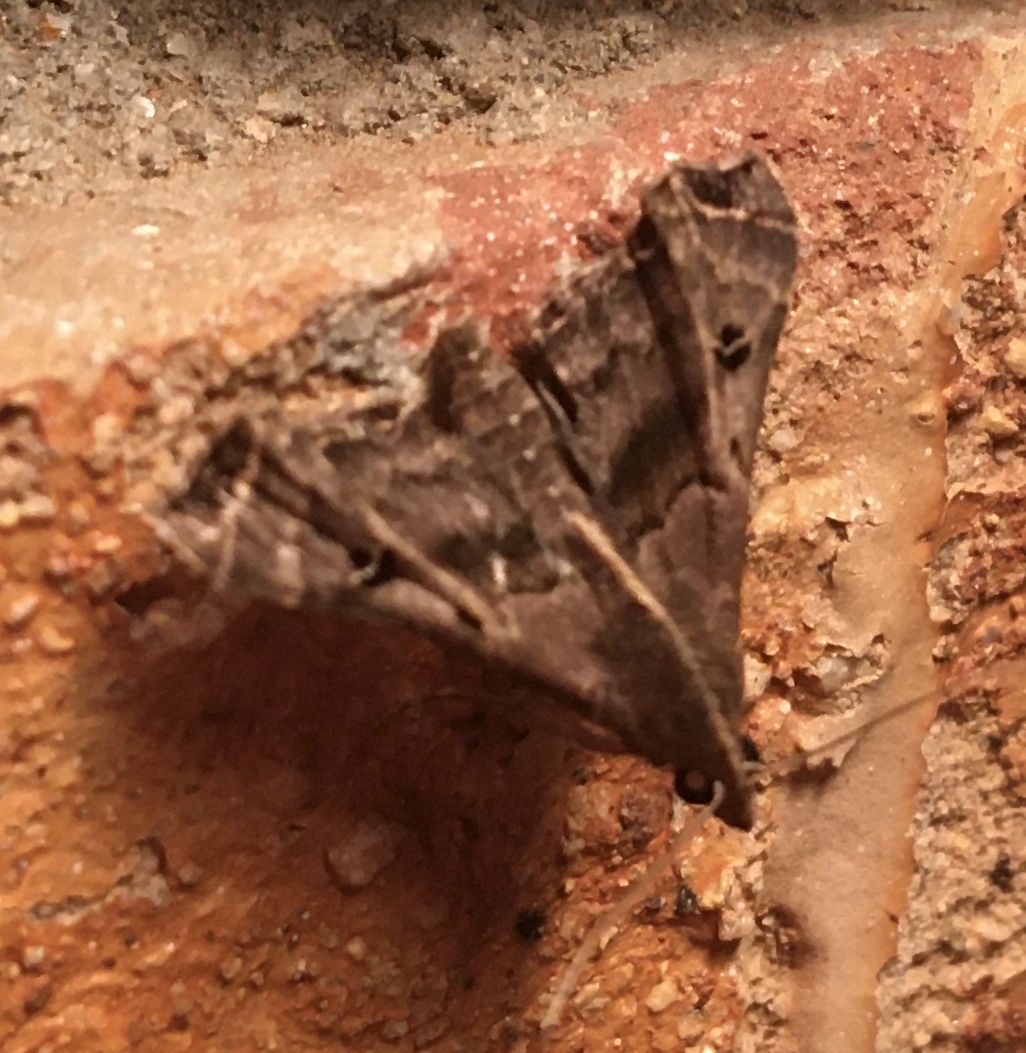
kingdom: Animalia
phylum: Arthropoda
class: Insecta
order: Lepidoptera
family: Erebidae
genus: Palthis
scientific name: Palthis asopialis
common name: Faint-spotted palthis moth
